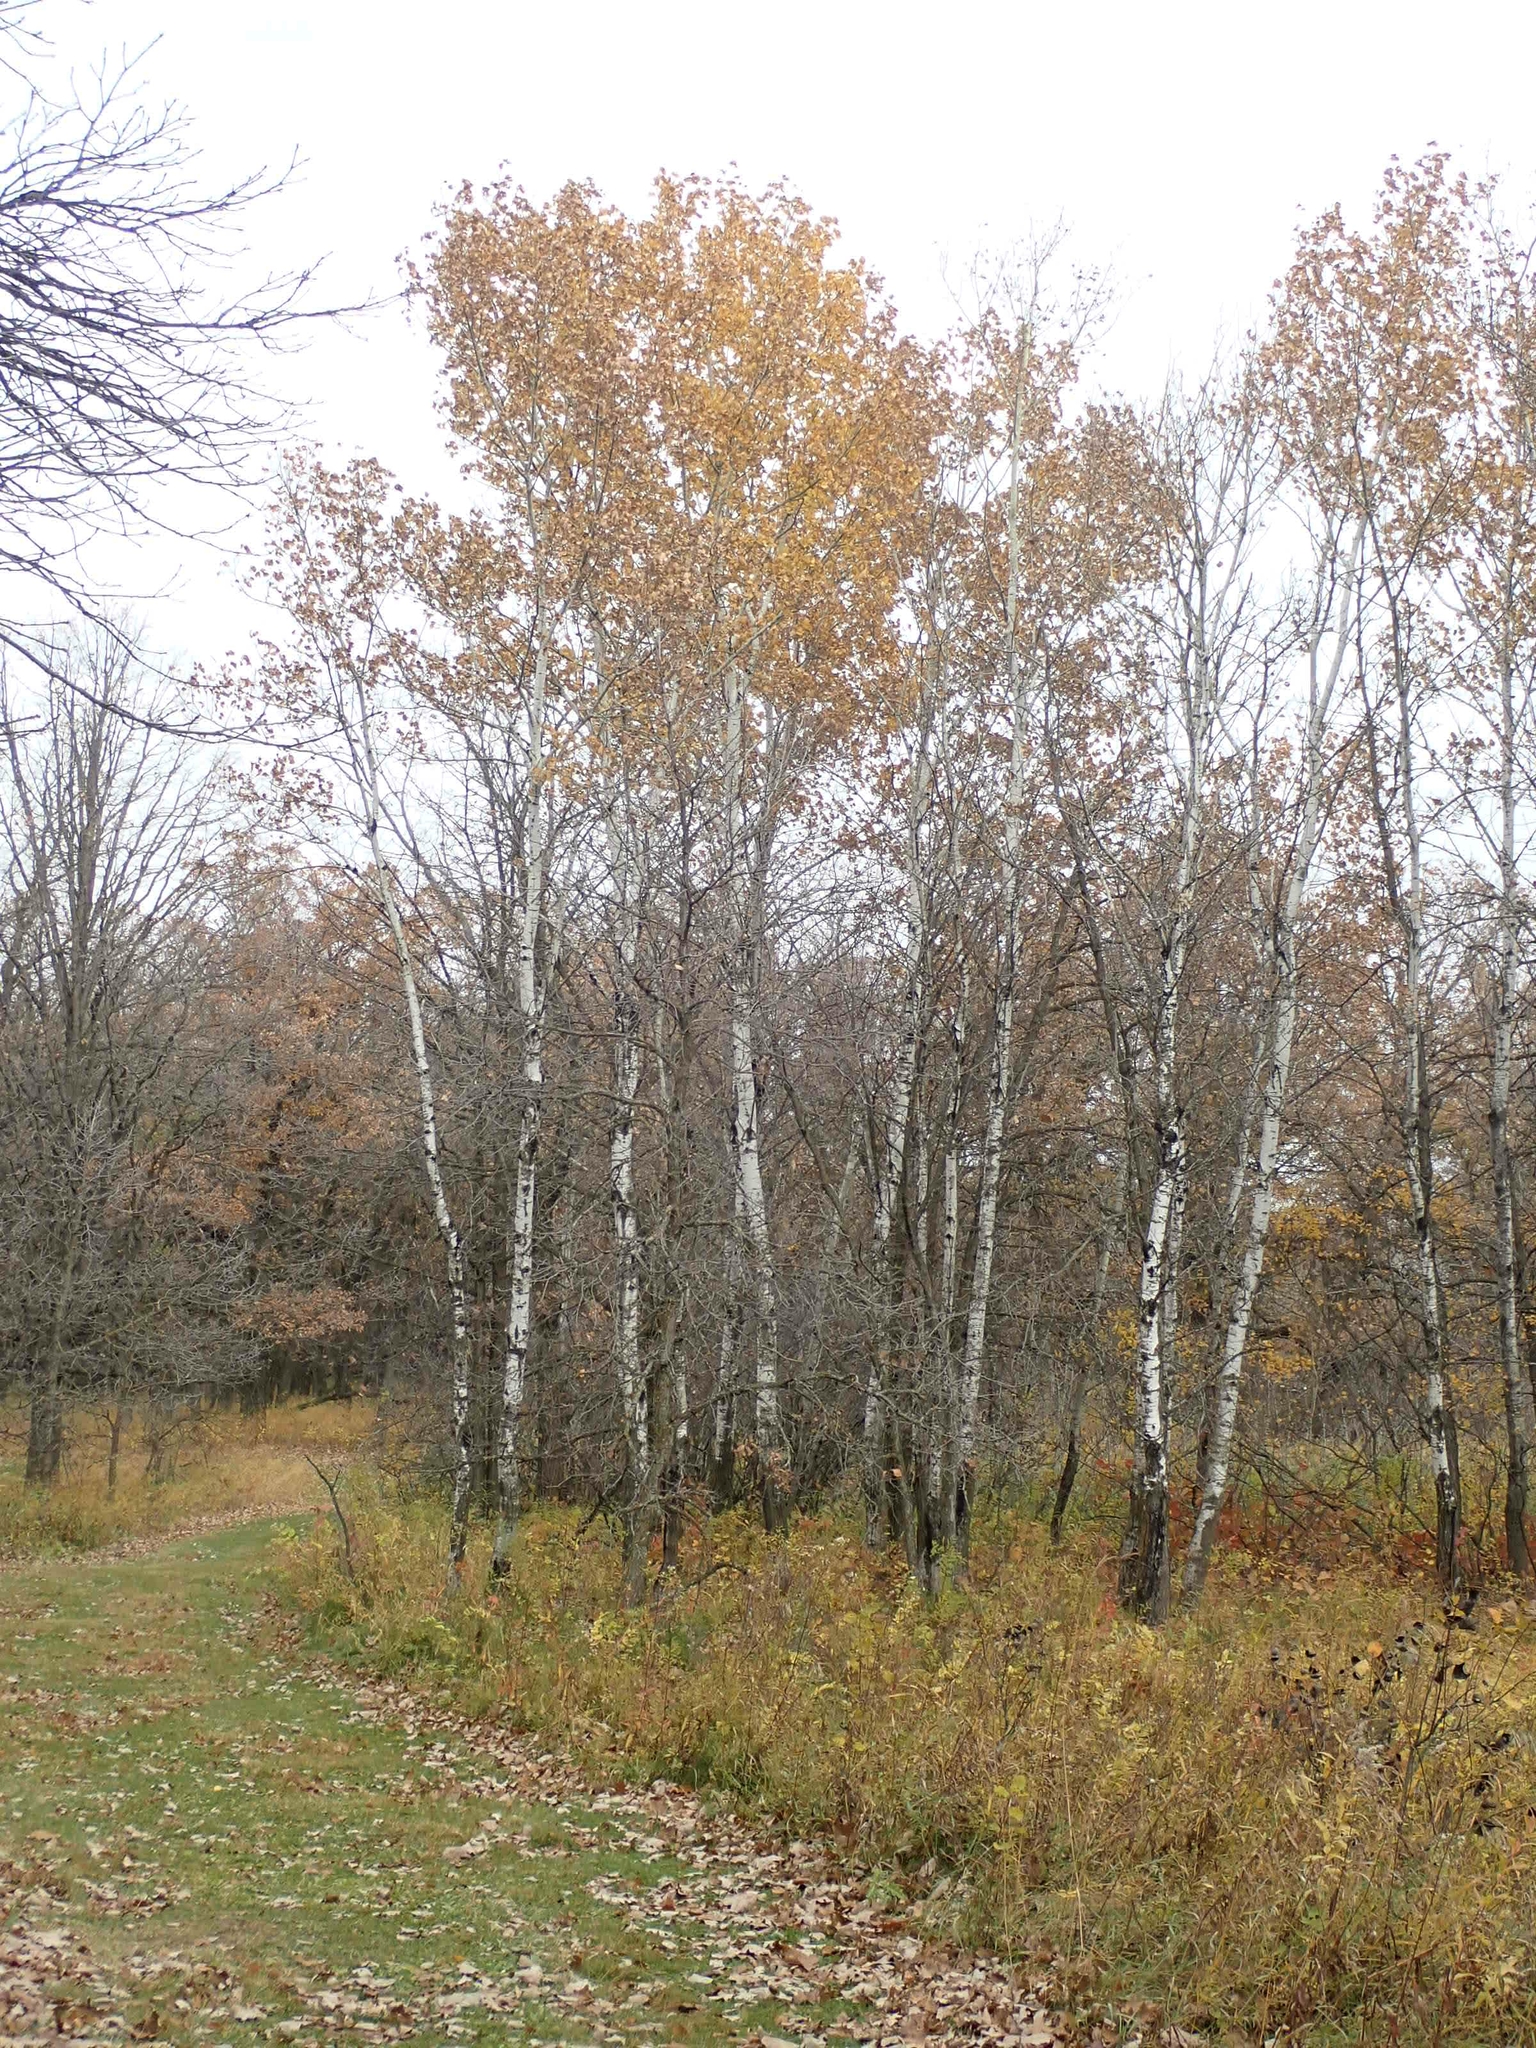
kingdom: Plantae
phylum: Tracheophyta
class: Magnoliopsida
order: Malpighiales
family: Salicaceae
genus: Populus
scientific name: Populus tremuloides
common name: Quaking aspen
